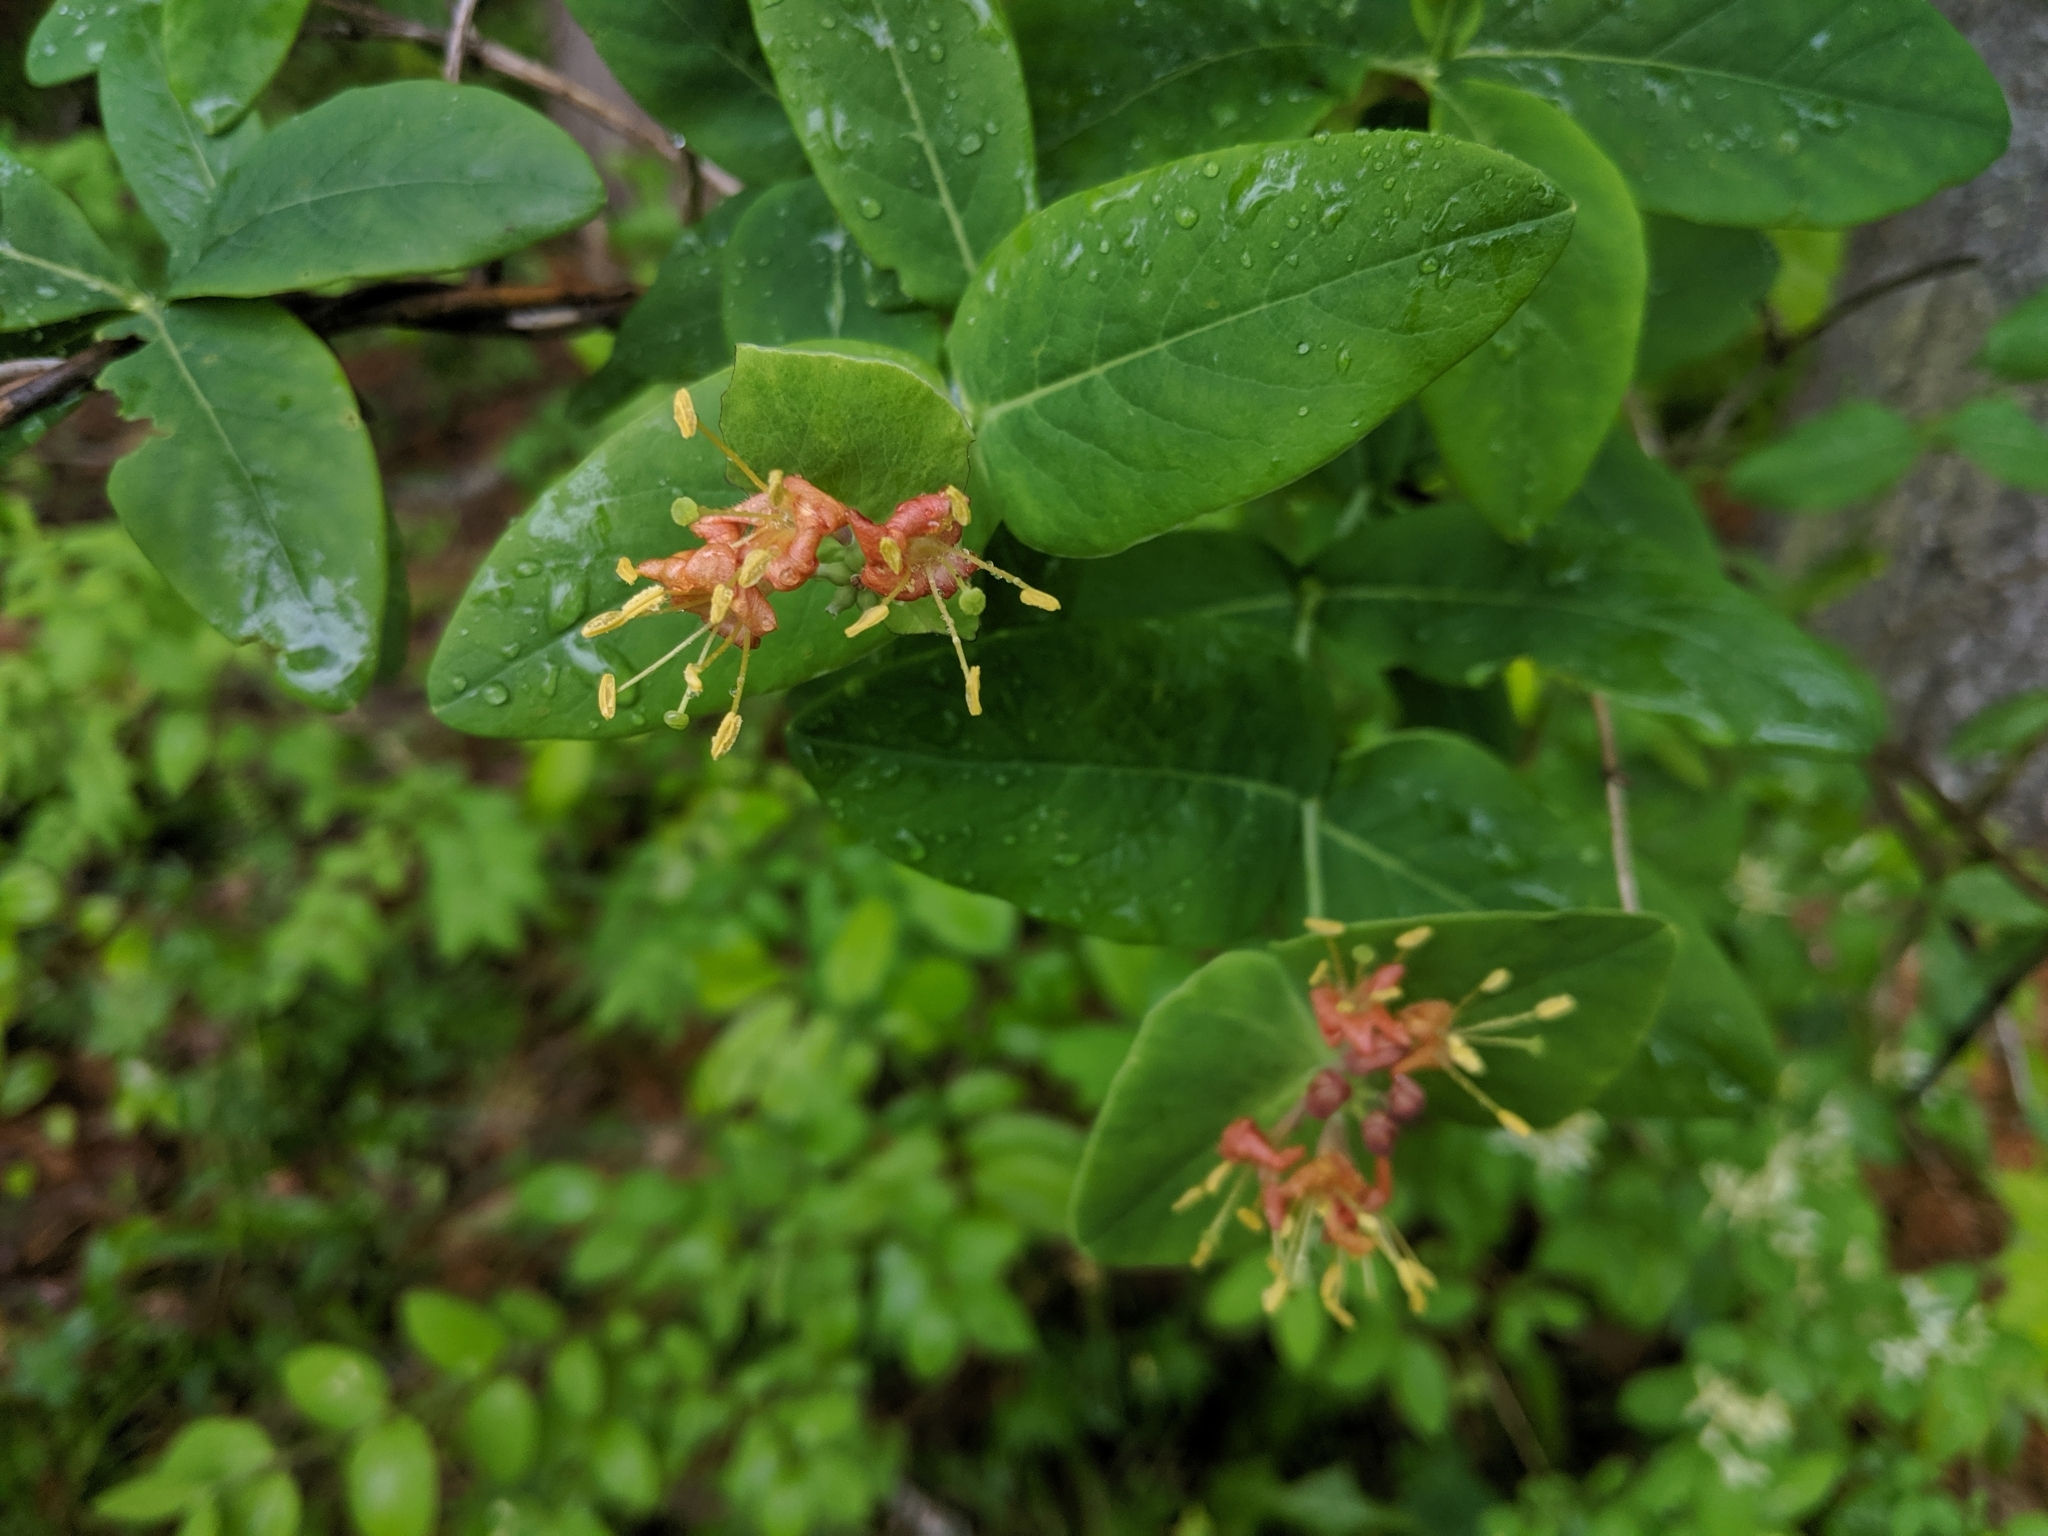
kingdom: Plantae
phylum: Tracheophyta
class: Magnoliopsida
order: Dipsacales
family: Caprifoliaceae
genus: Lonicera
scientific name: Lonicera dioica
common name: Limber honeysuckle
